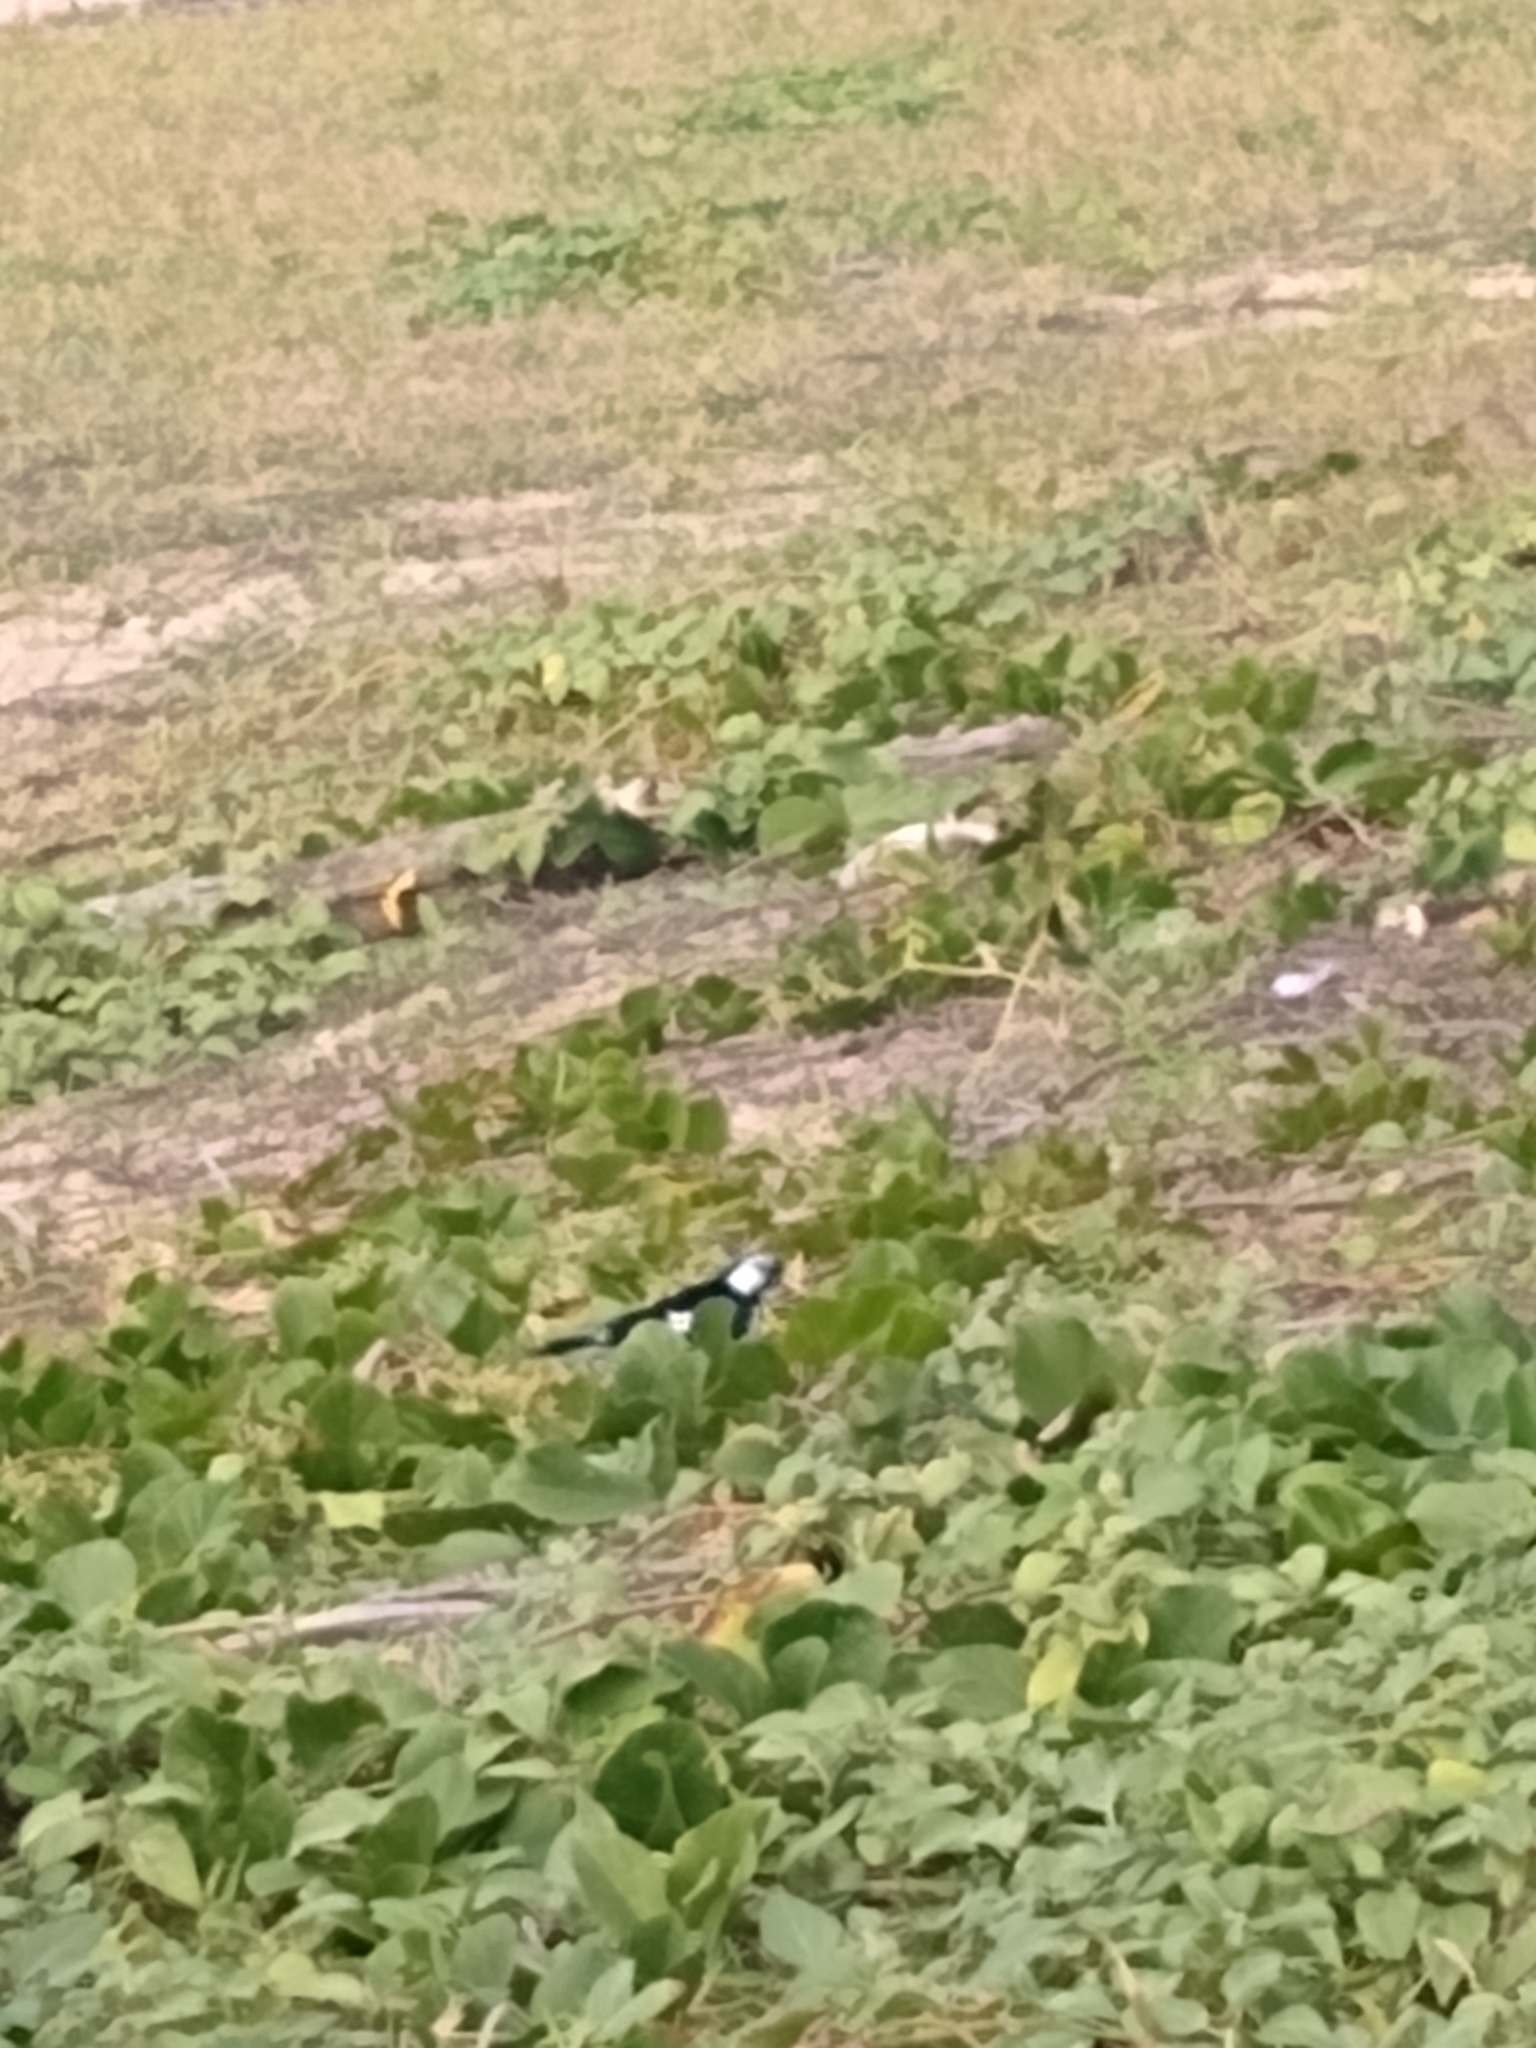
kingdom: Animalia
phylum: Chordata
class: Aves
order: Passeriformes
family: Monarchidae
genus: Grallina
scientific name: Grallina cyanoleuca
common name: Magpie-lark
